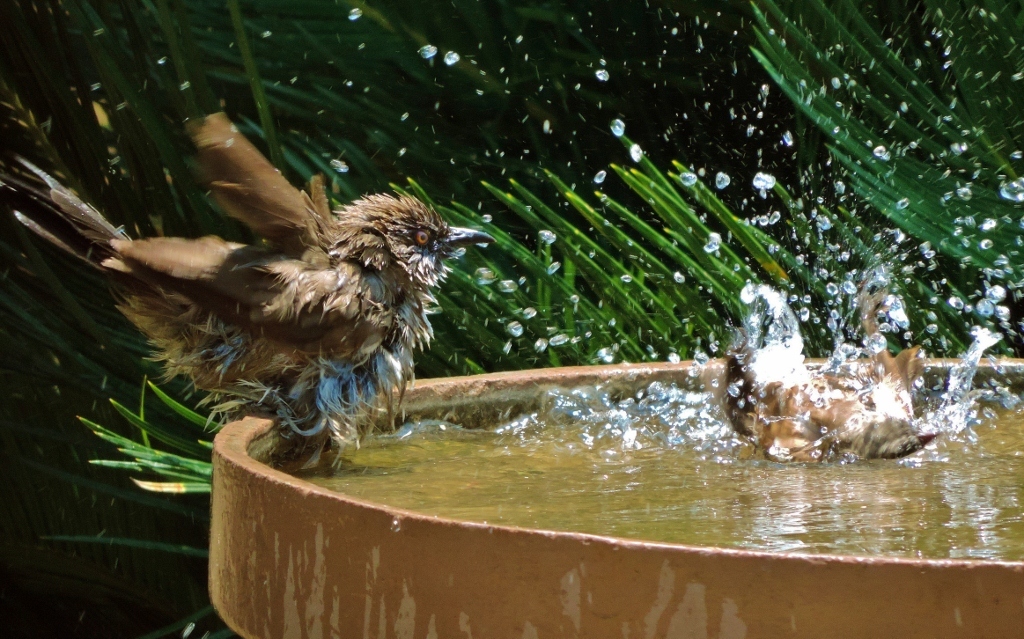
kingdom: Animalia
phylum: Chordata
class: Aves
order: Passeriformes
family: Leiothrichidae
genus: Turdoides
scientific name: Turdoides jardineii
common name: Arrow-marked babbler
